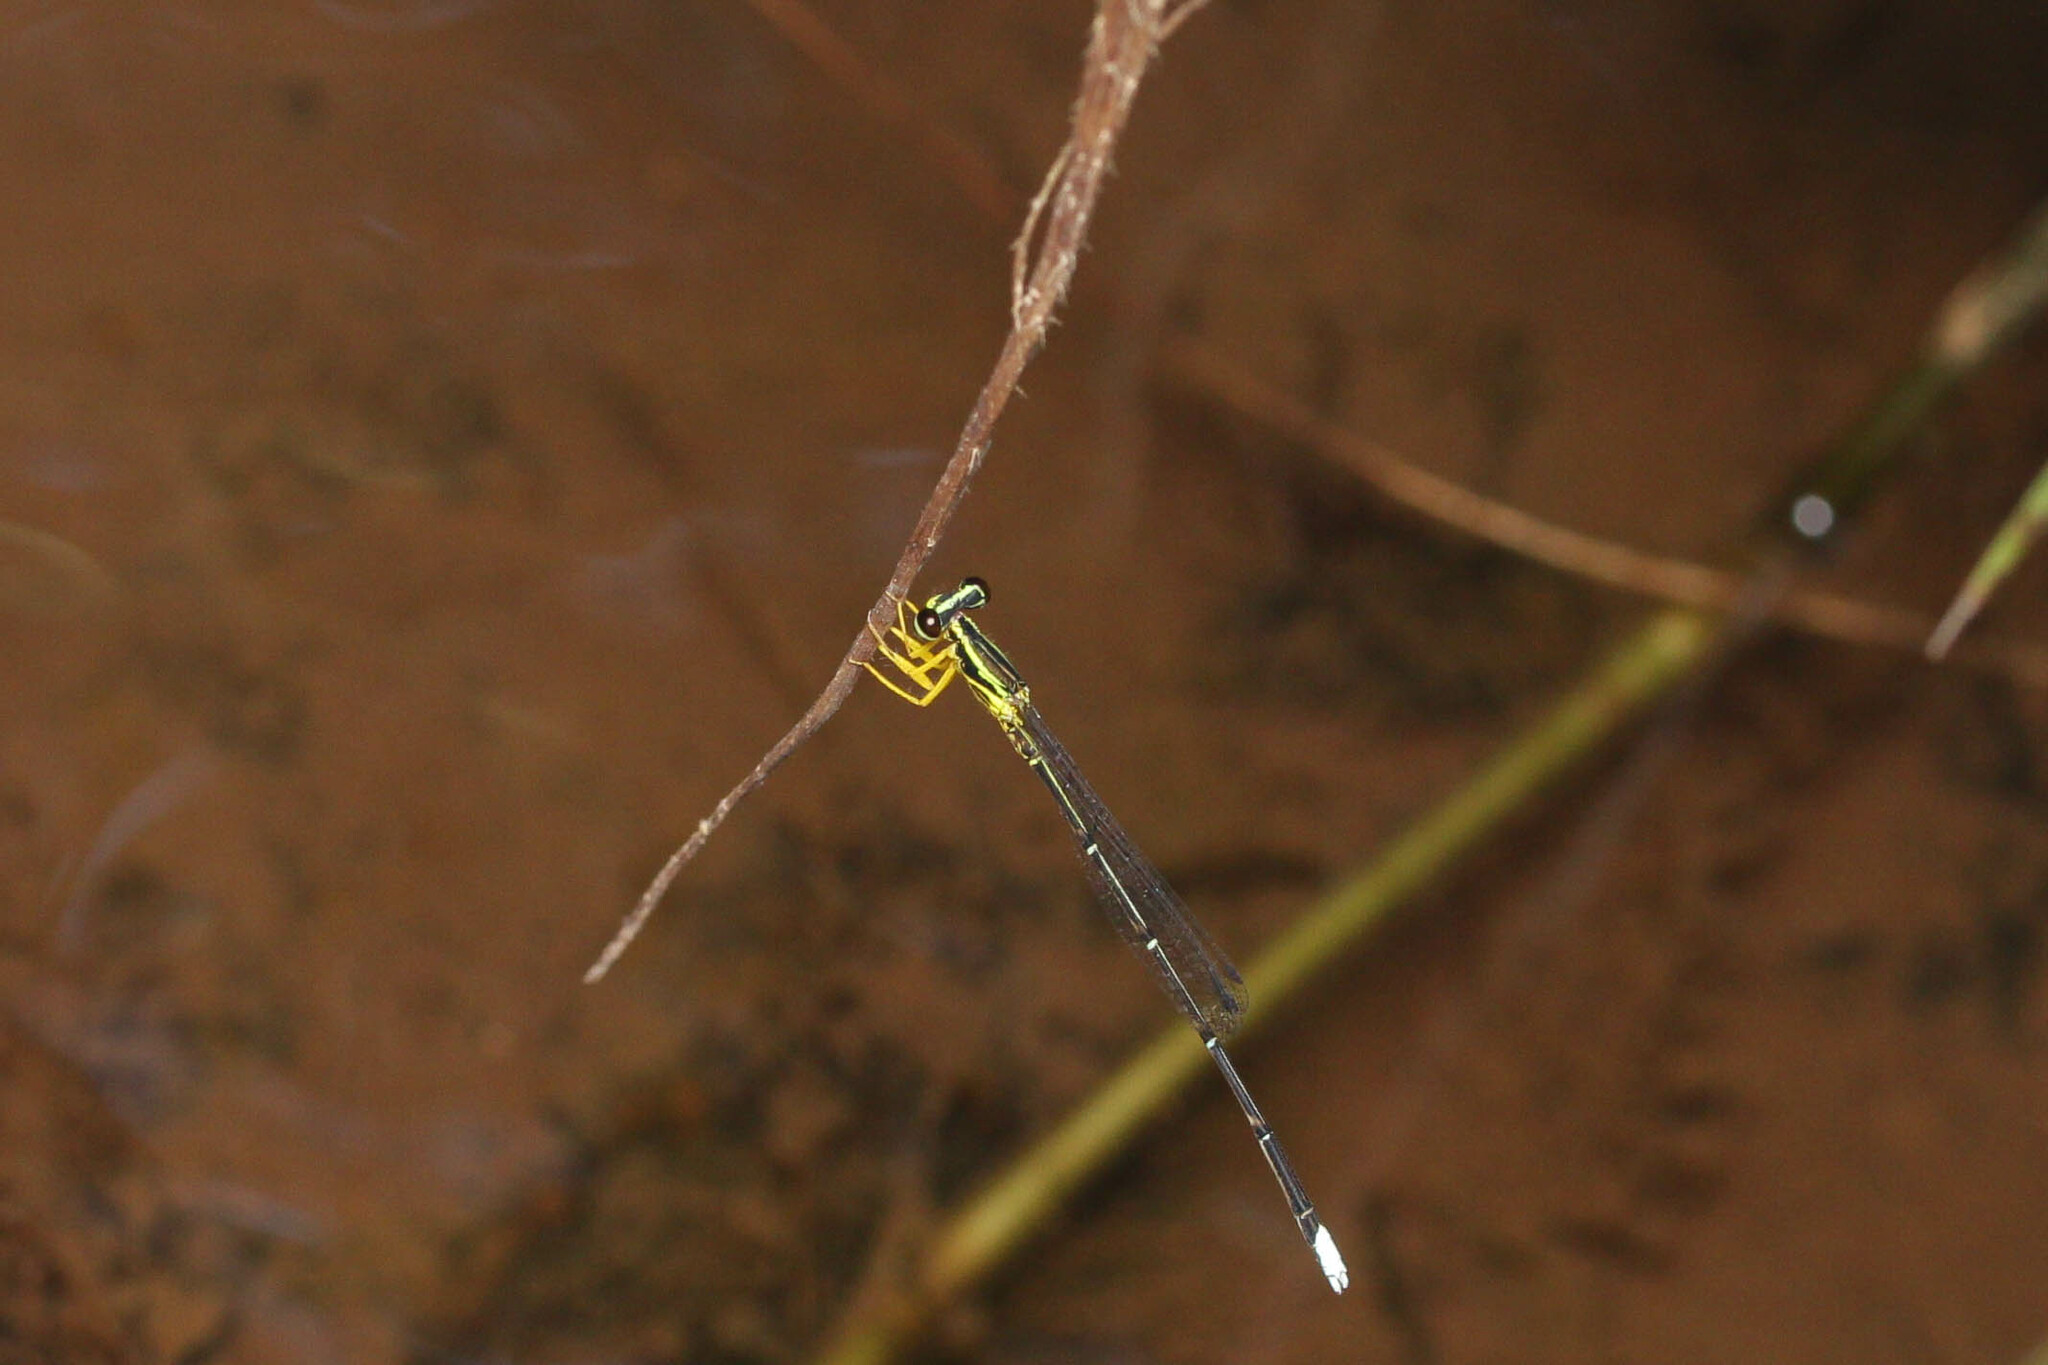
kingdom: Animalia
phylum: Arthropoda
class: Insecta
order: Odonata
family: Platycnemididae
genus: Copera
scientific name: Copera marginipes
